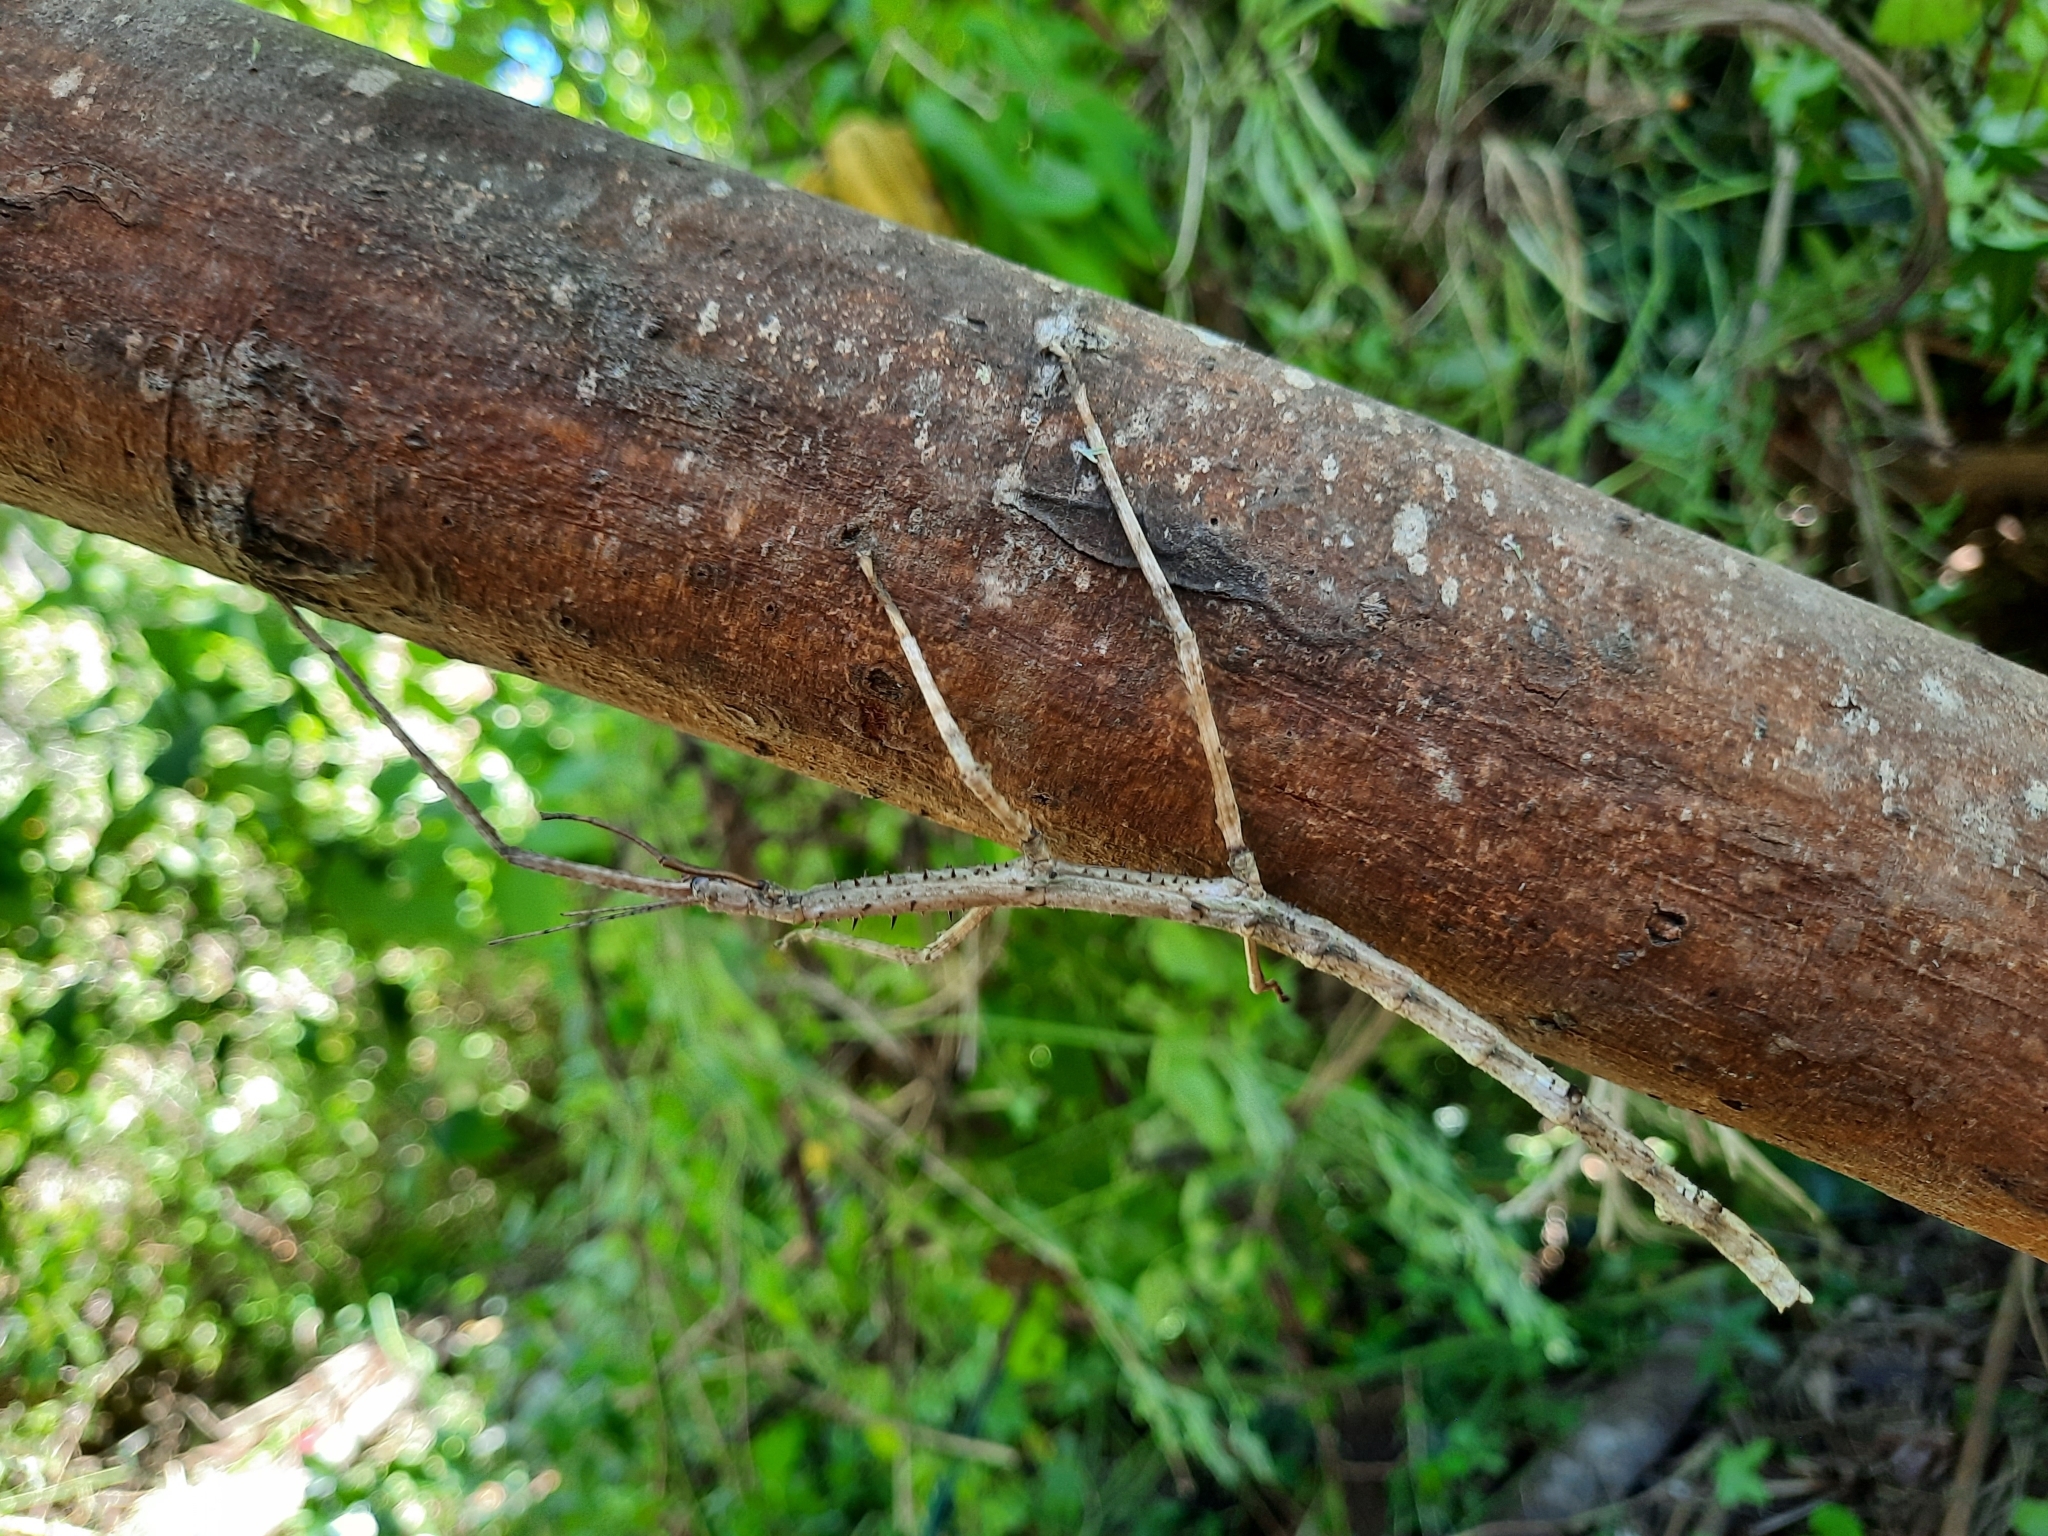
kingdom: Animalia
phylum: Arthropoda
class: Insecta
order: Phasmida
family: Phasmatidae
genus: Argosarchus
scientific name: Argosarchus horridus
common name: Bristly stick insect
